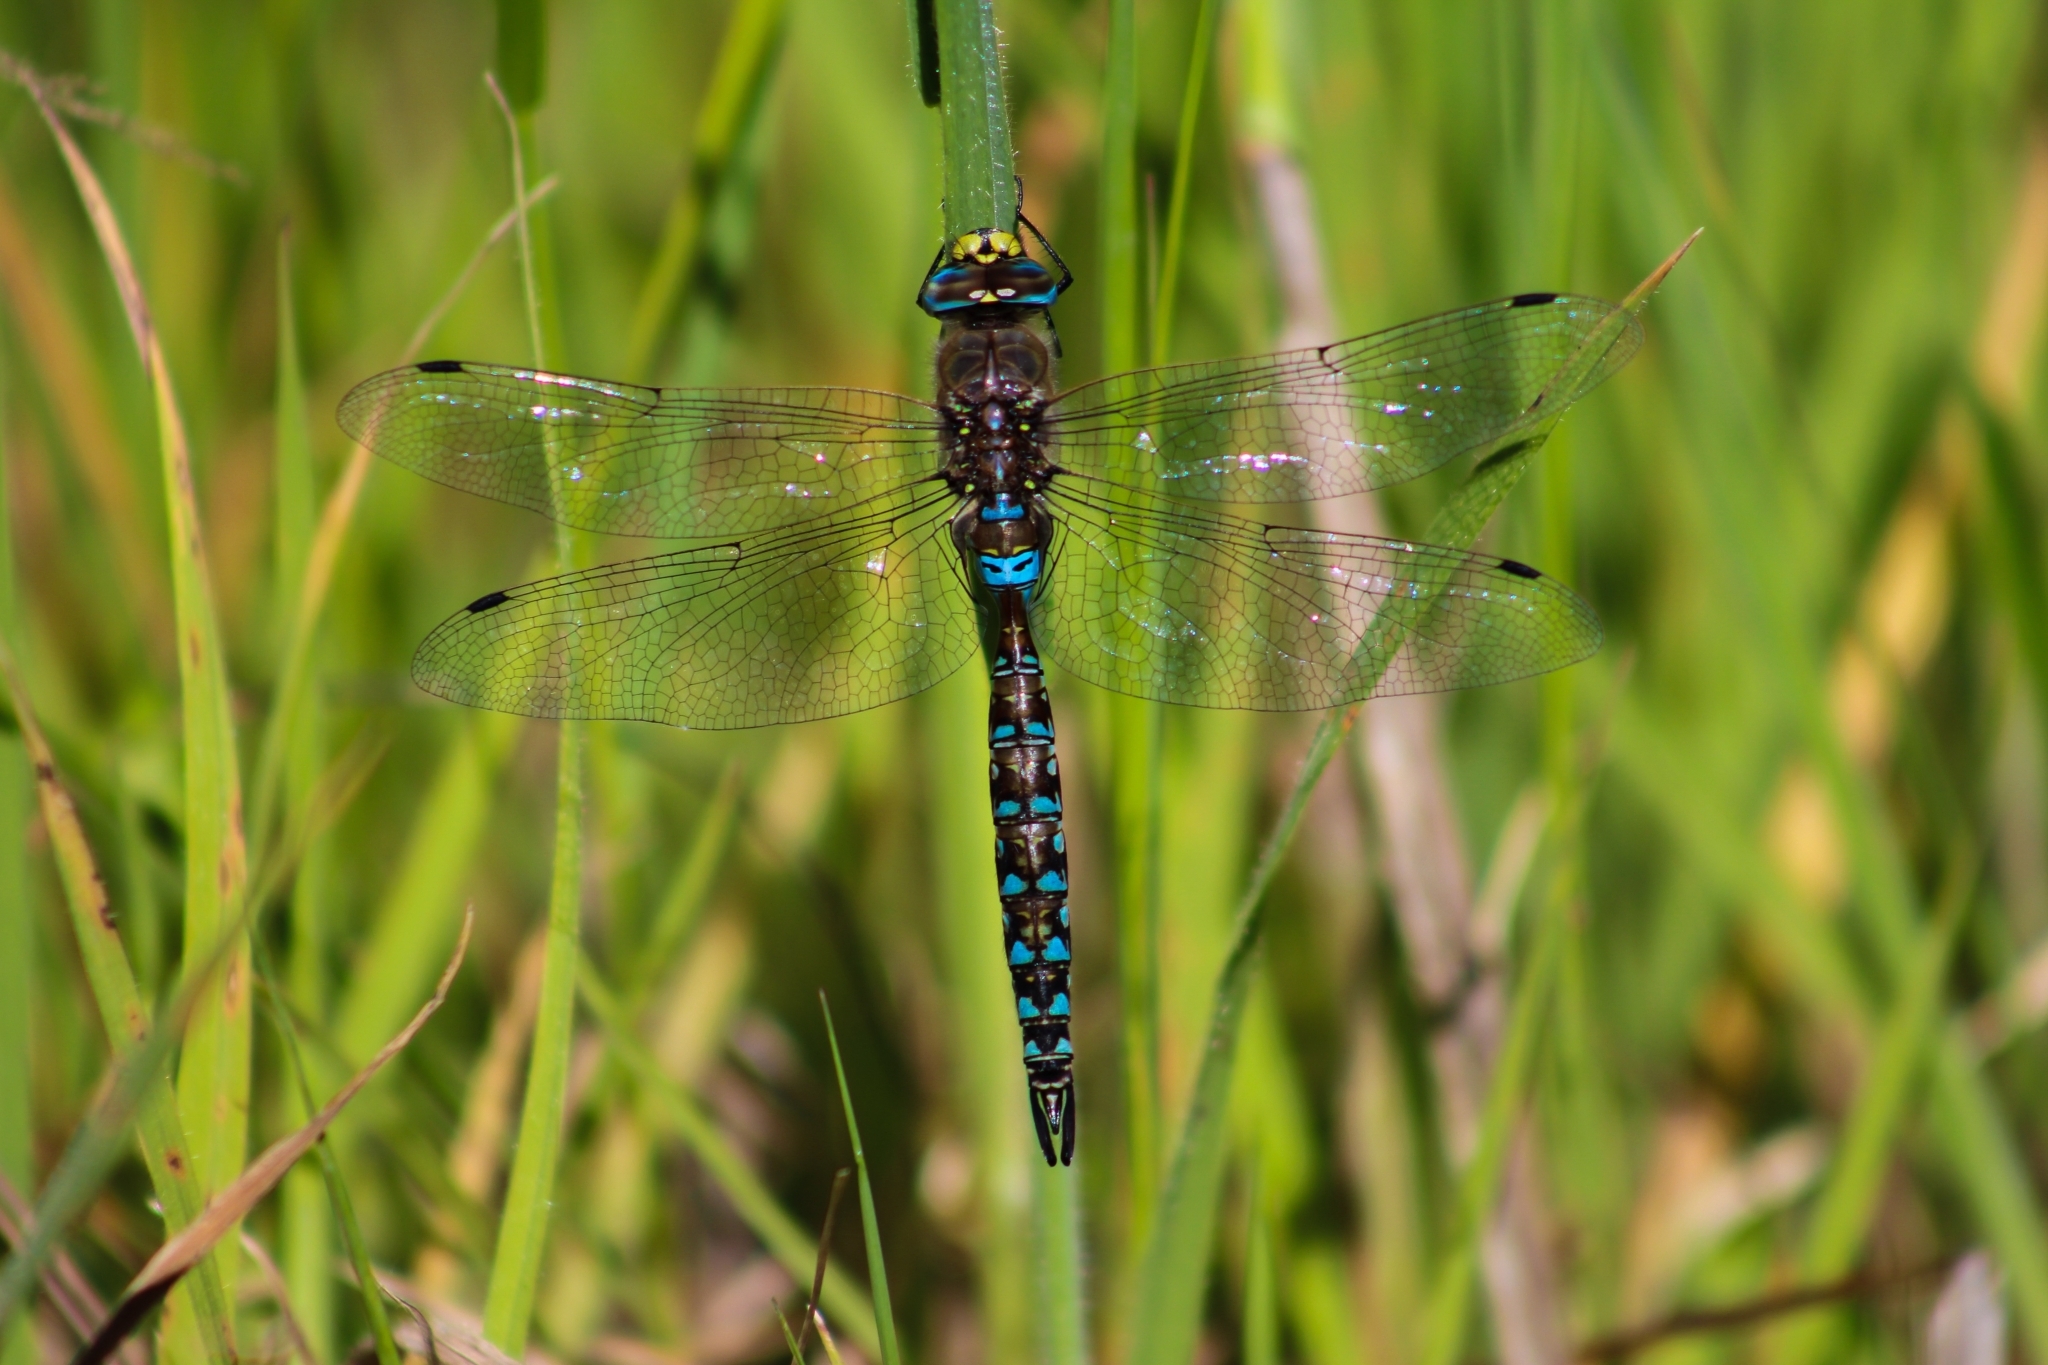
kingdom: Animalia
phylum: Arthropoda
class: Insecta
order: Odonata
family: Aeshnidae
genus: Rhionaeschna
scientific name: Rhionaeschna diffinis
